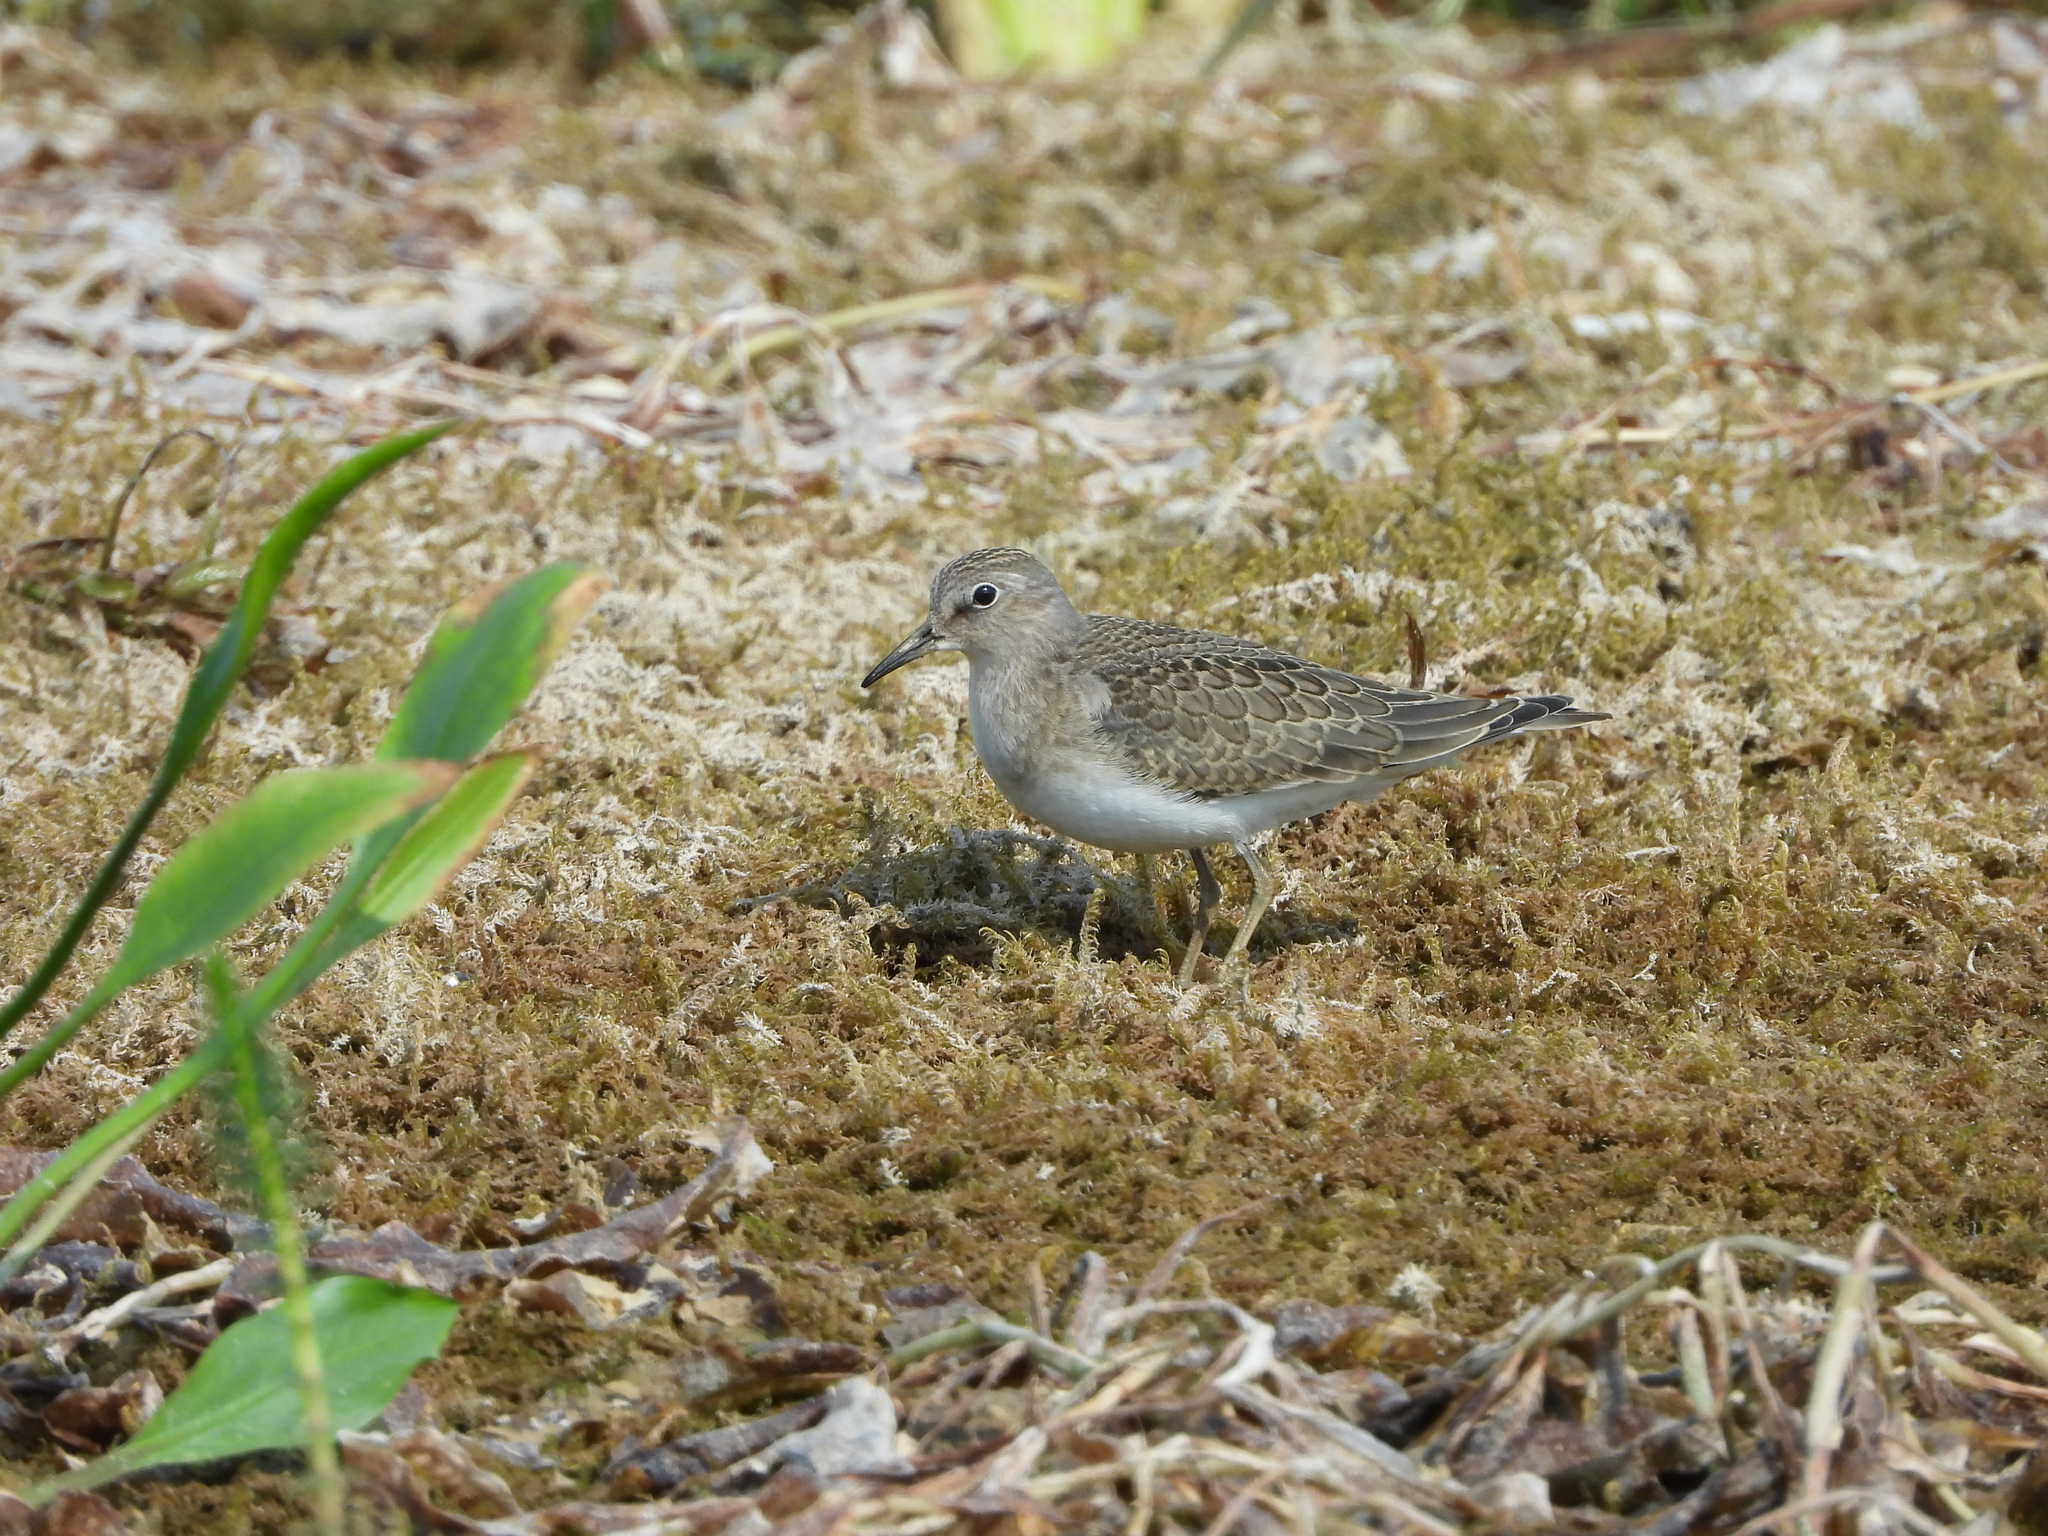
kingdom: Animalia
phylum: Chordata
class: Aves
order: Charadriiformes
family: Scolopacidae
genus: Calidris
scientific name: Calidris temminckii
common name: Temminck's stint
